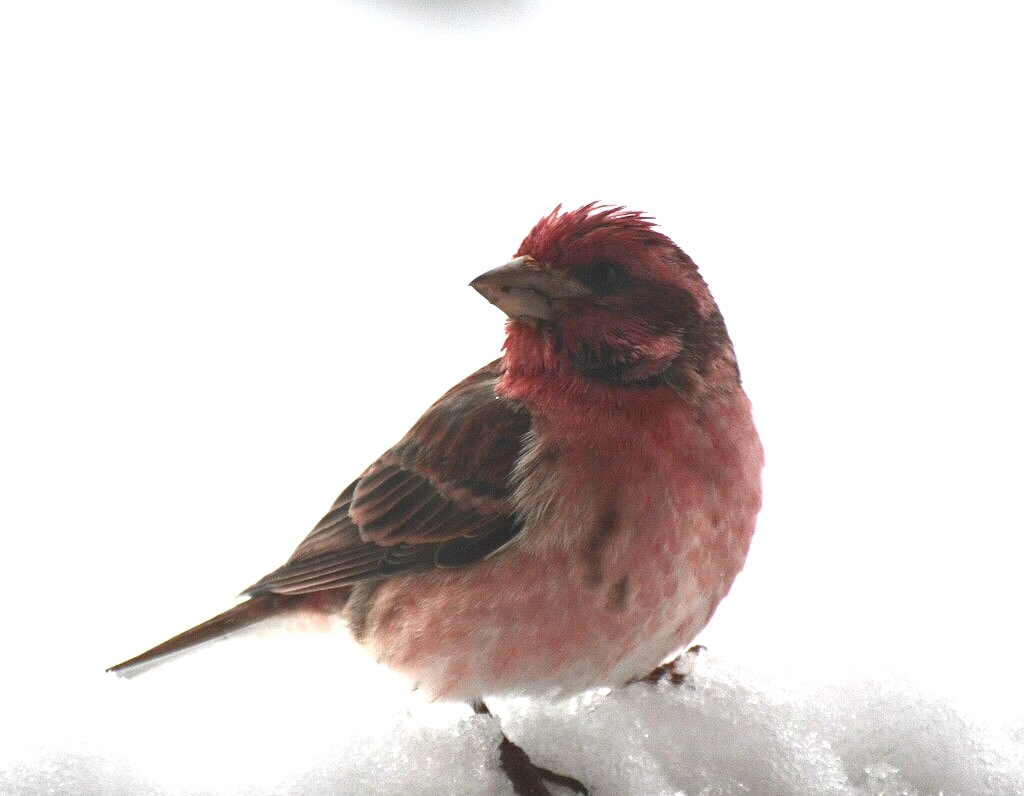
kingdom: Animalia
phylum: Chordata
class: Aves
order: Passeriformes
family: Fringillidae
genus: Haemorhous
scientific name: Haemorhous purpureus
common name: Purple finch
